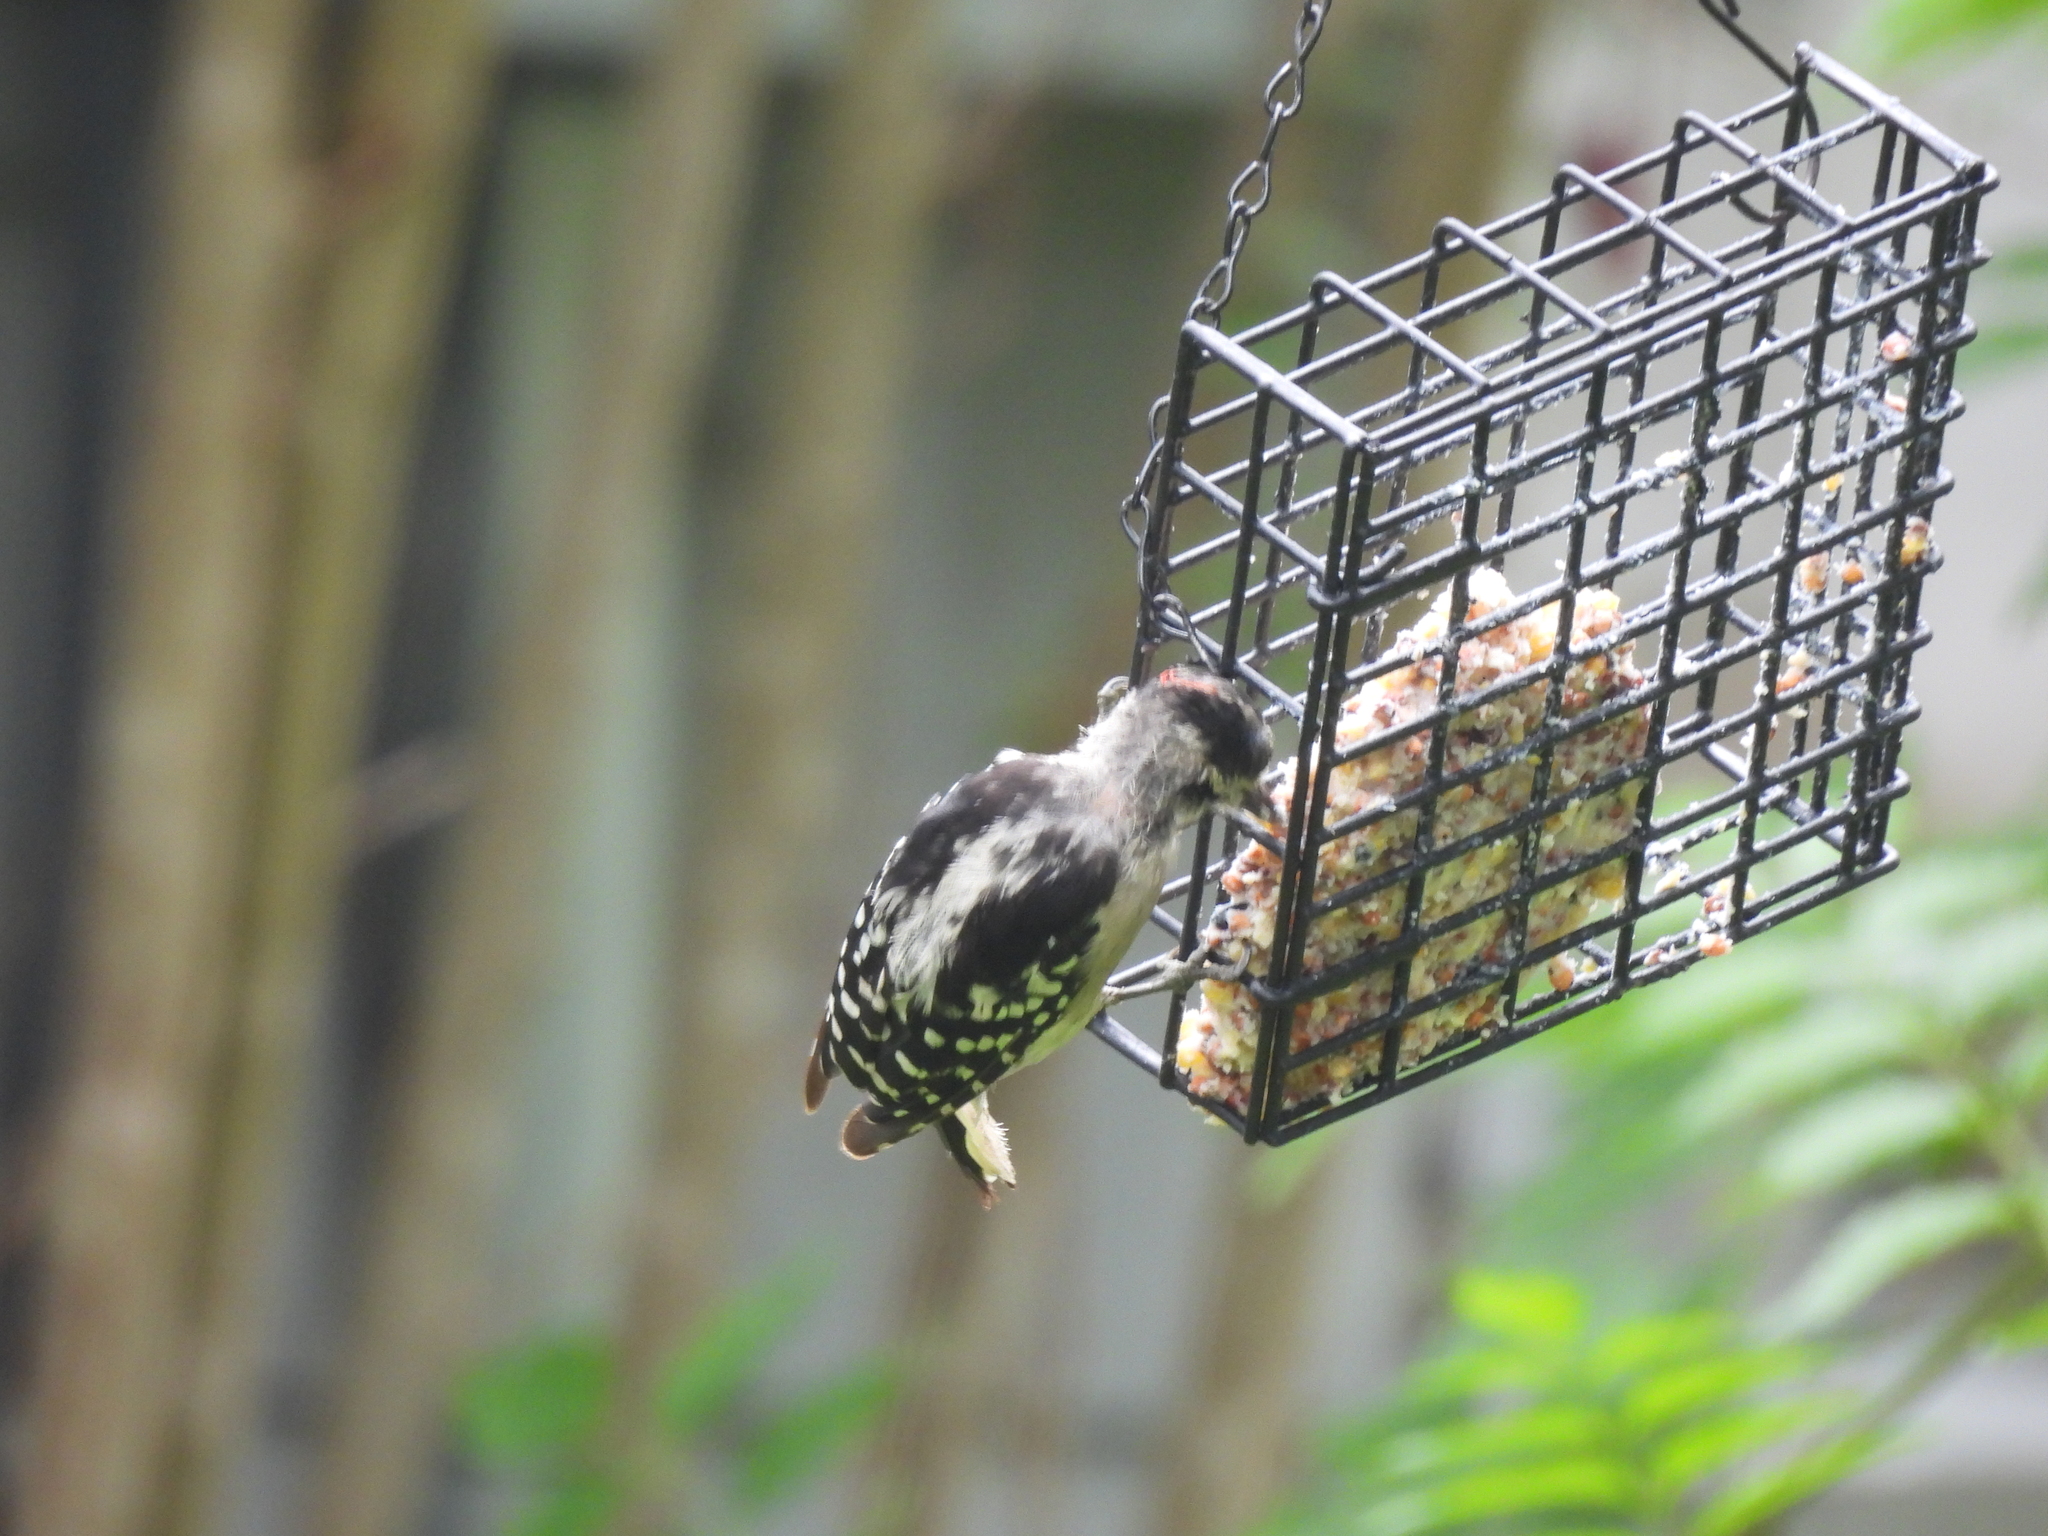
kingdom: Animalia
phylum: Chordata
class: Aves
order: Piciformes
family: Picidae
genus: Dryobates
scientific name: Dryobates pubescens
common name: Downy woodpecker
